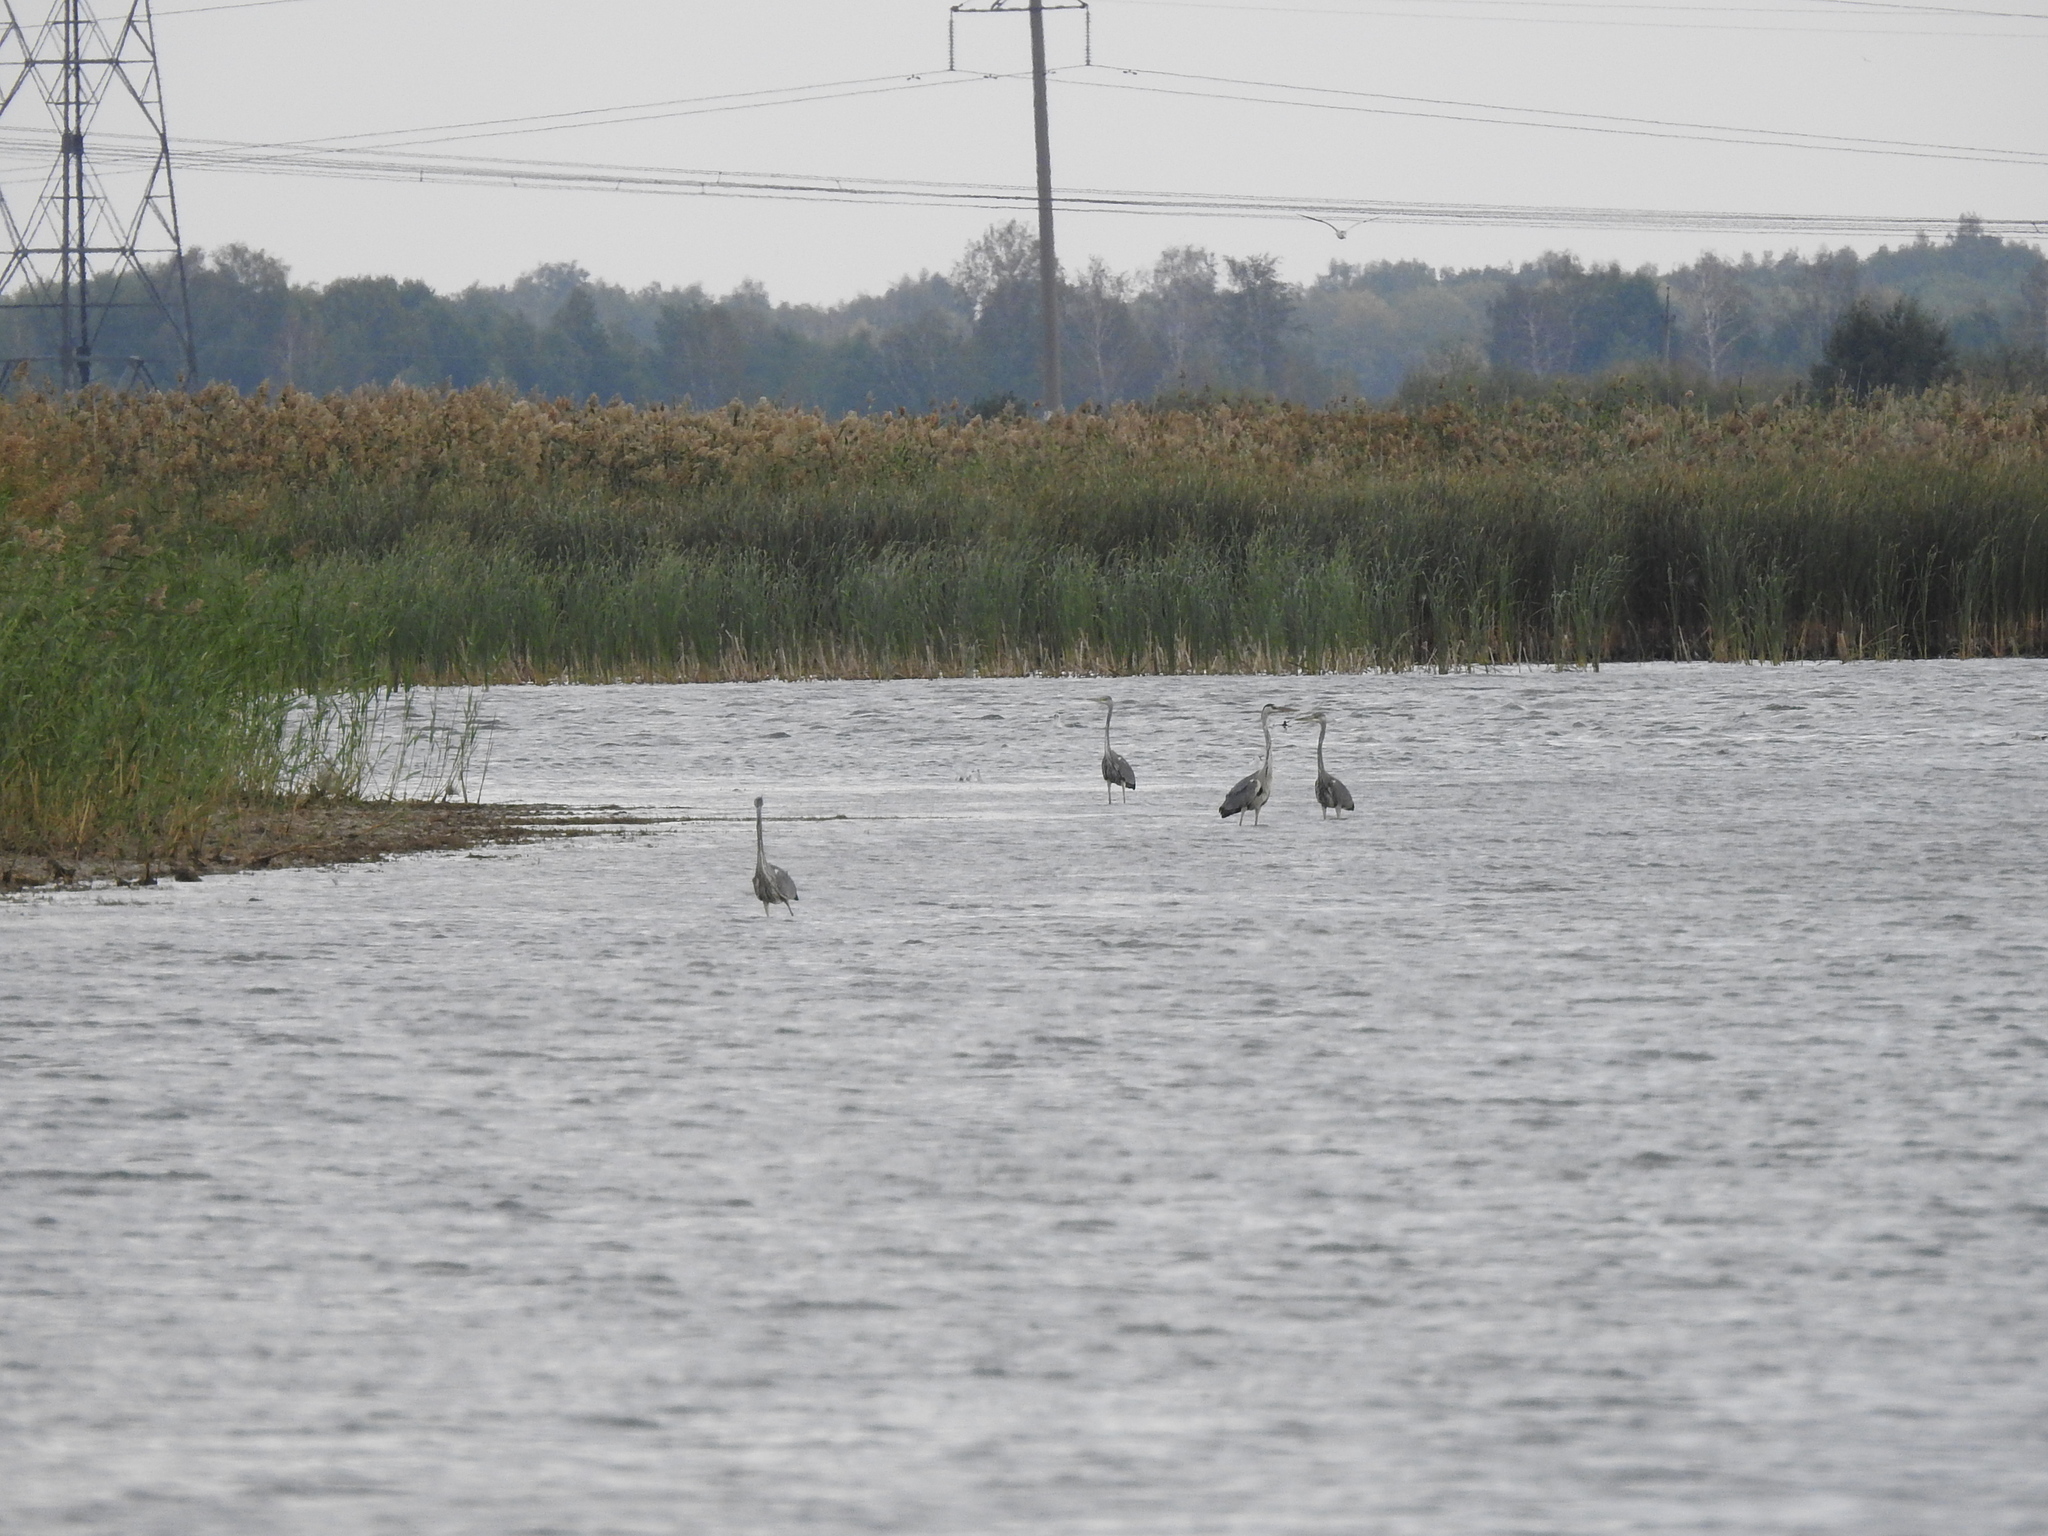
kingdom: Animalia
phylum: Chordata
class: Aves
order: Pelecaniformes
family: Ardeidae
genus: Ardea
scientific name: Ardea cinerea
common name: Grey heron
